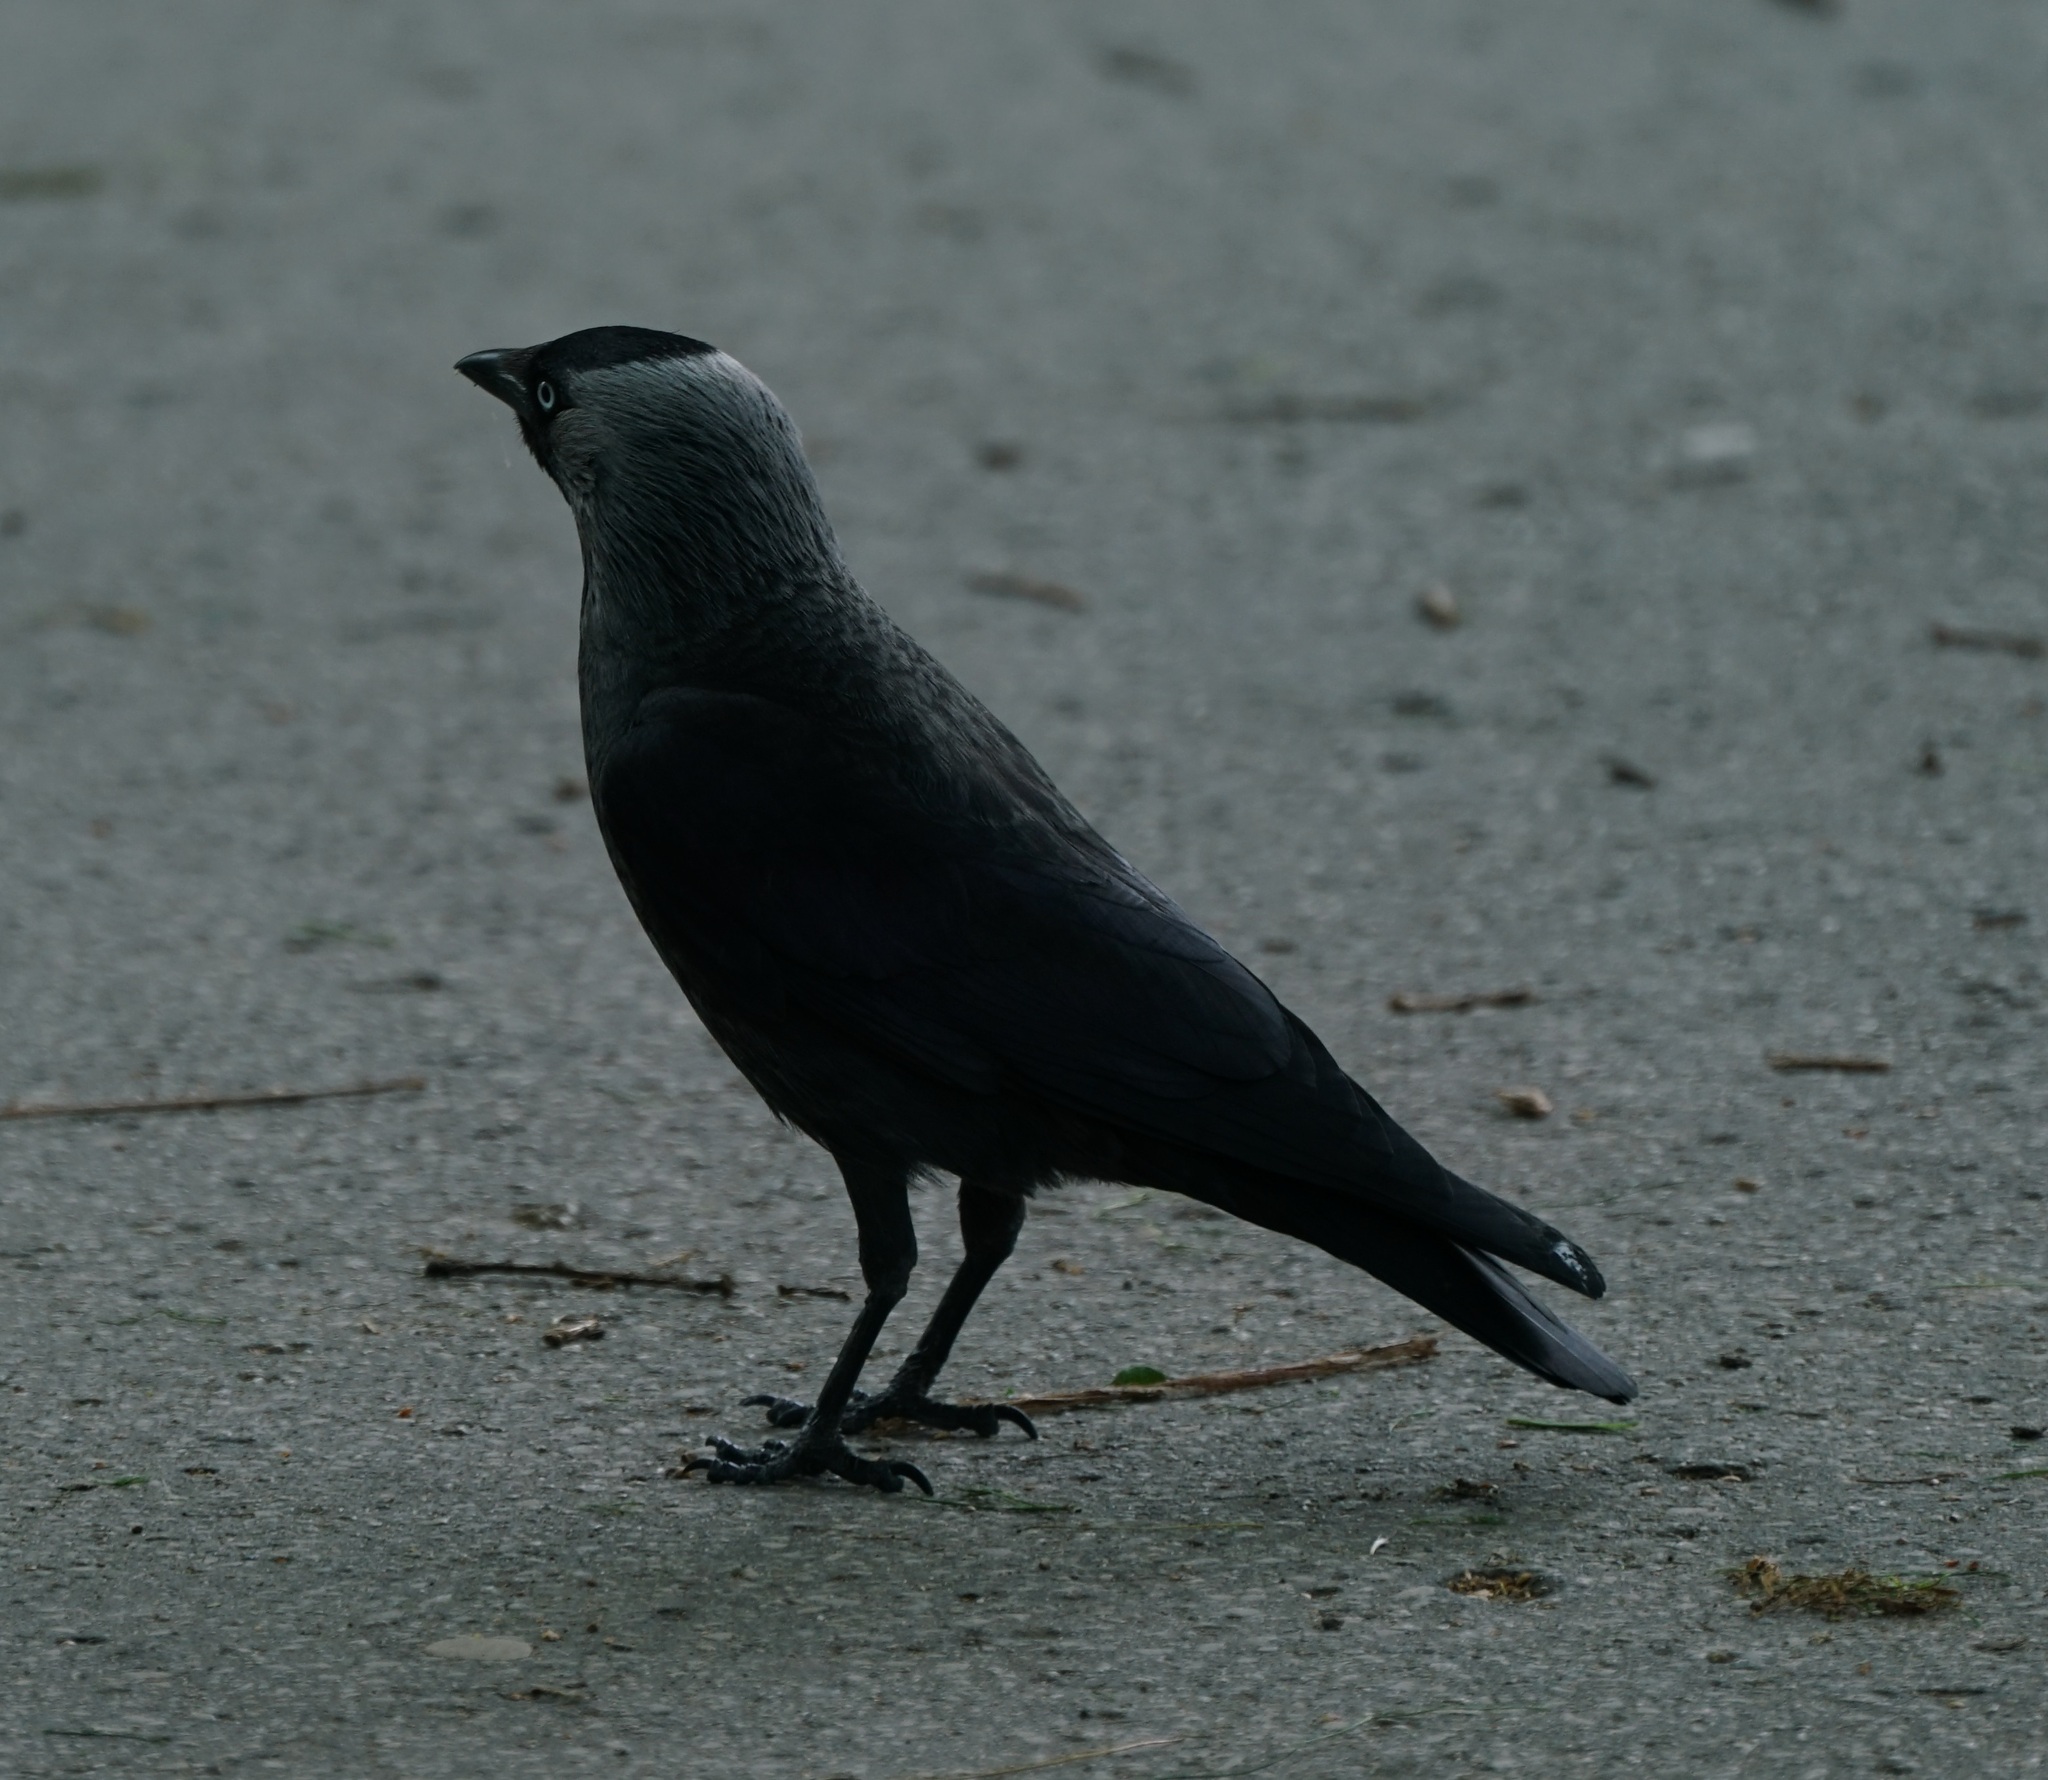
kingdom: Animalia
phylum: Chordata
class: Aves
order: Passeriformes
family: Corvidae
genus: Coloeus
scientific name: Coloeus monedula
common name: Western jackdaw
